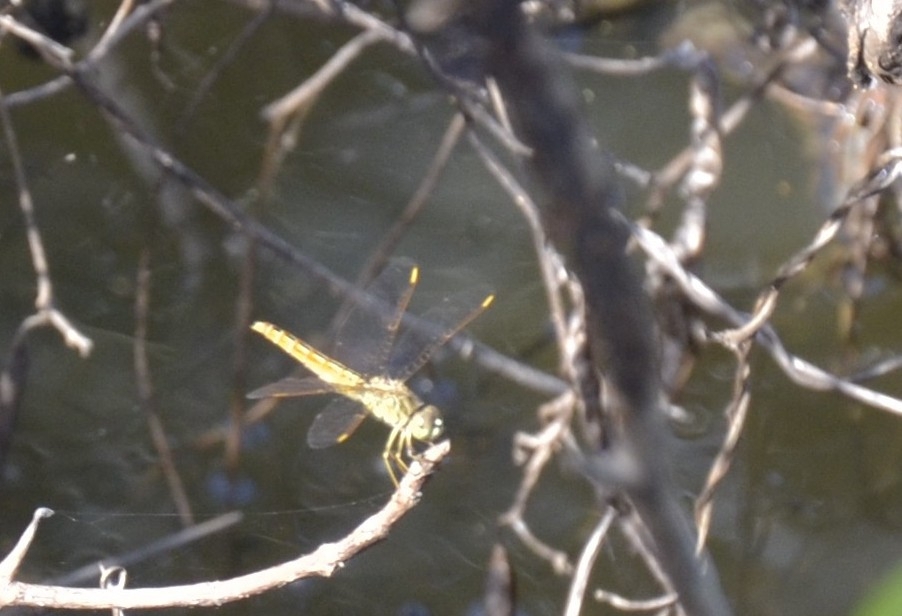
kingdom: Animalia
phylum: Arthropoda
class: Insecta
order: Odonata
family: Libellulidae
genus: Brachythemis
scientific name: Brachythemis contaminata
